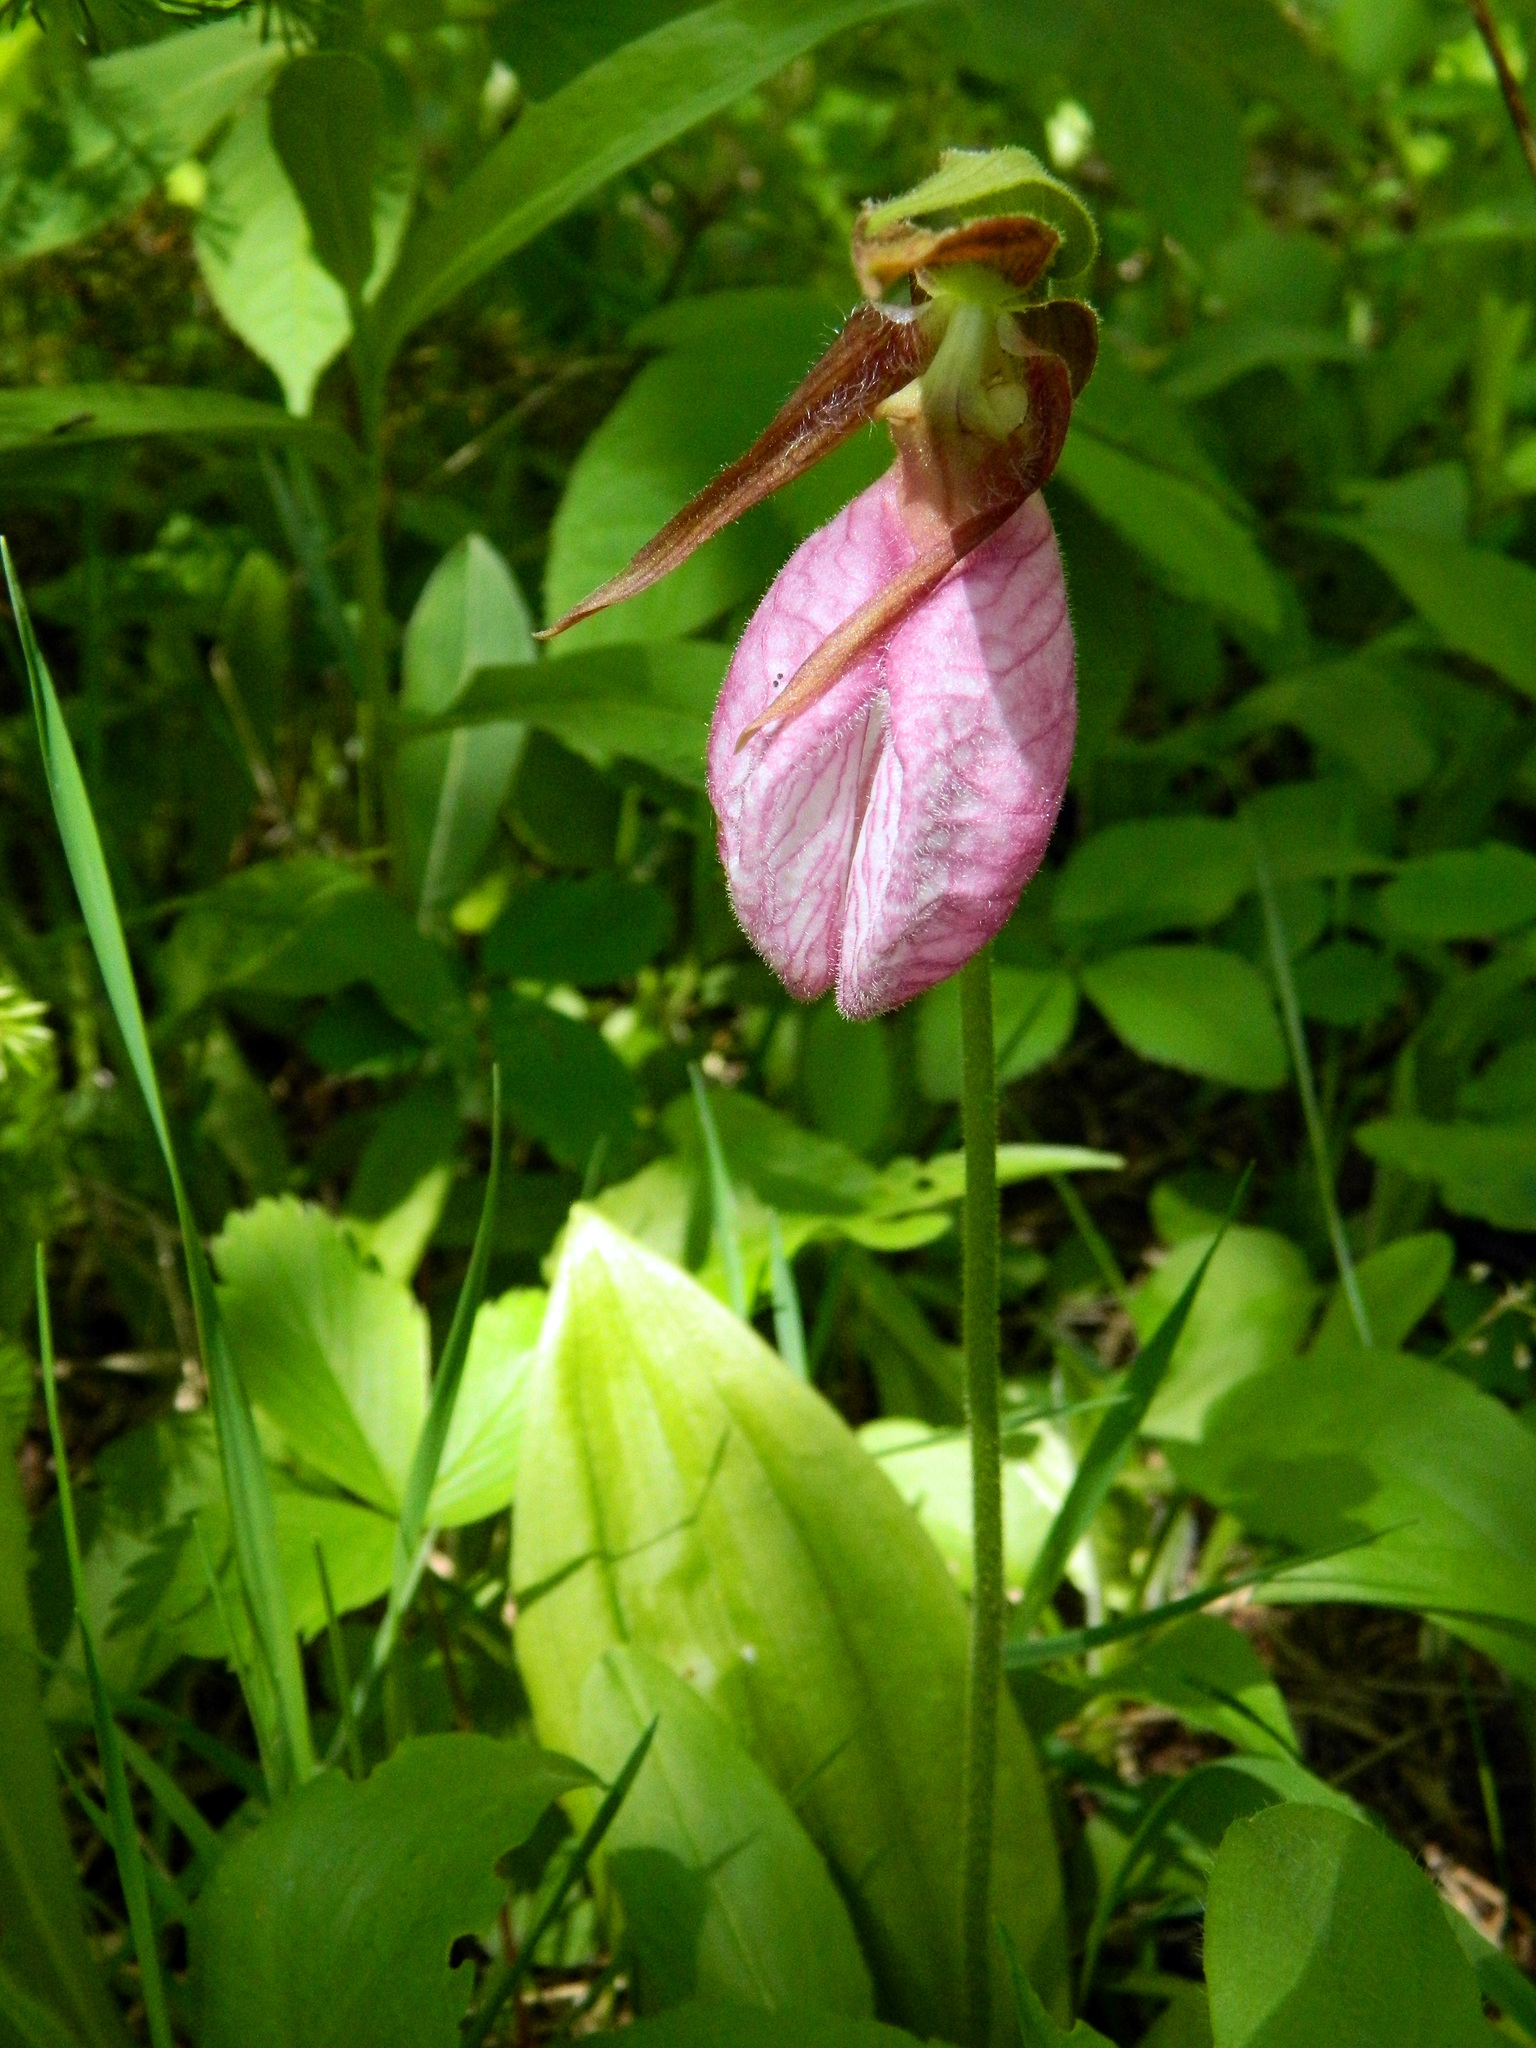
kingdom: Plantae
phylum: Tracheophyta
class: Liliopsida
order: Asparagales
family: Orchidaceae
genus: Cypripedium
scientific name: Cypripedium acaule
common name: Pink lady's-slipper
